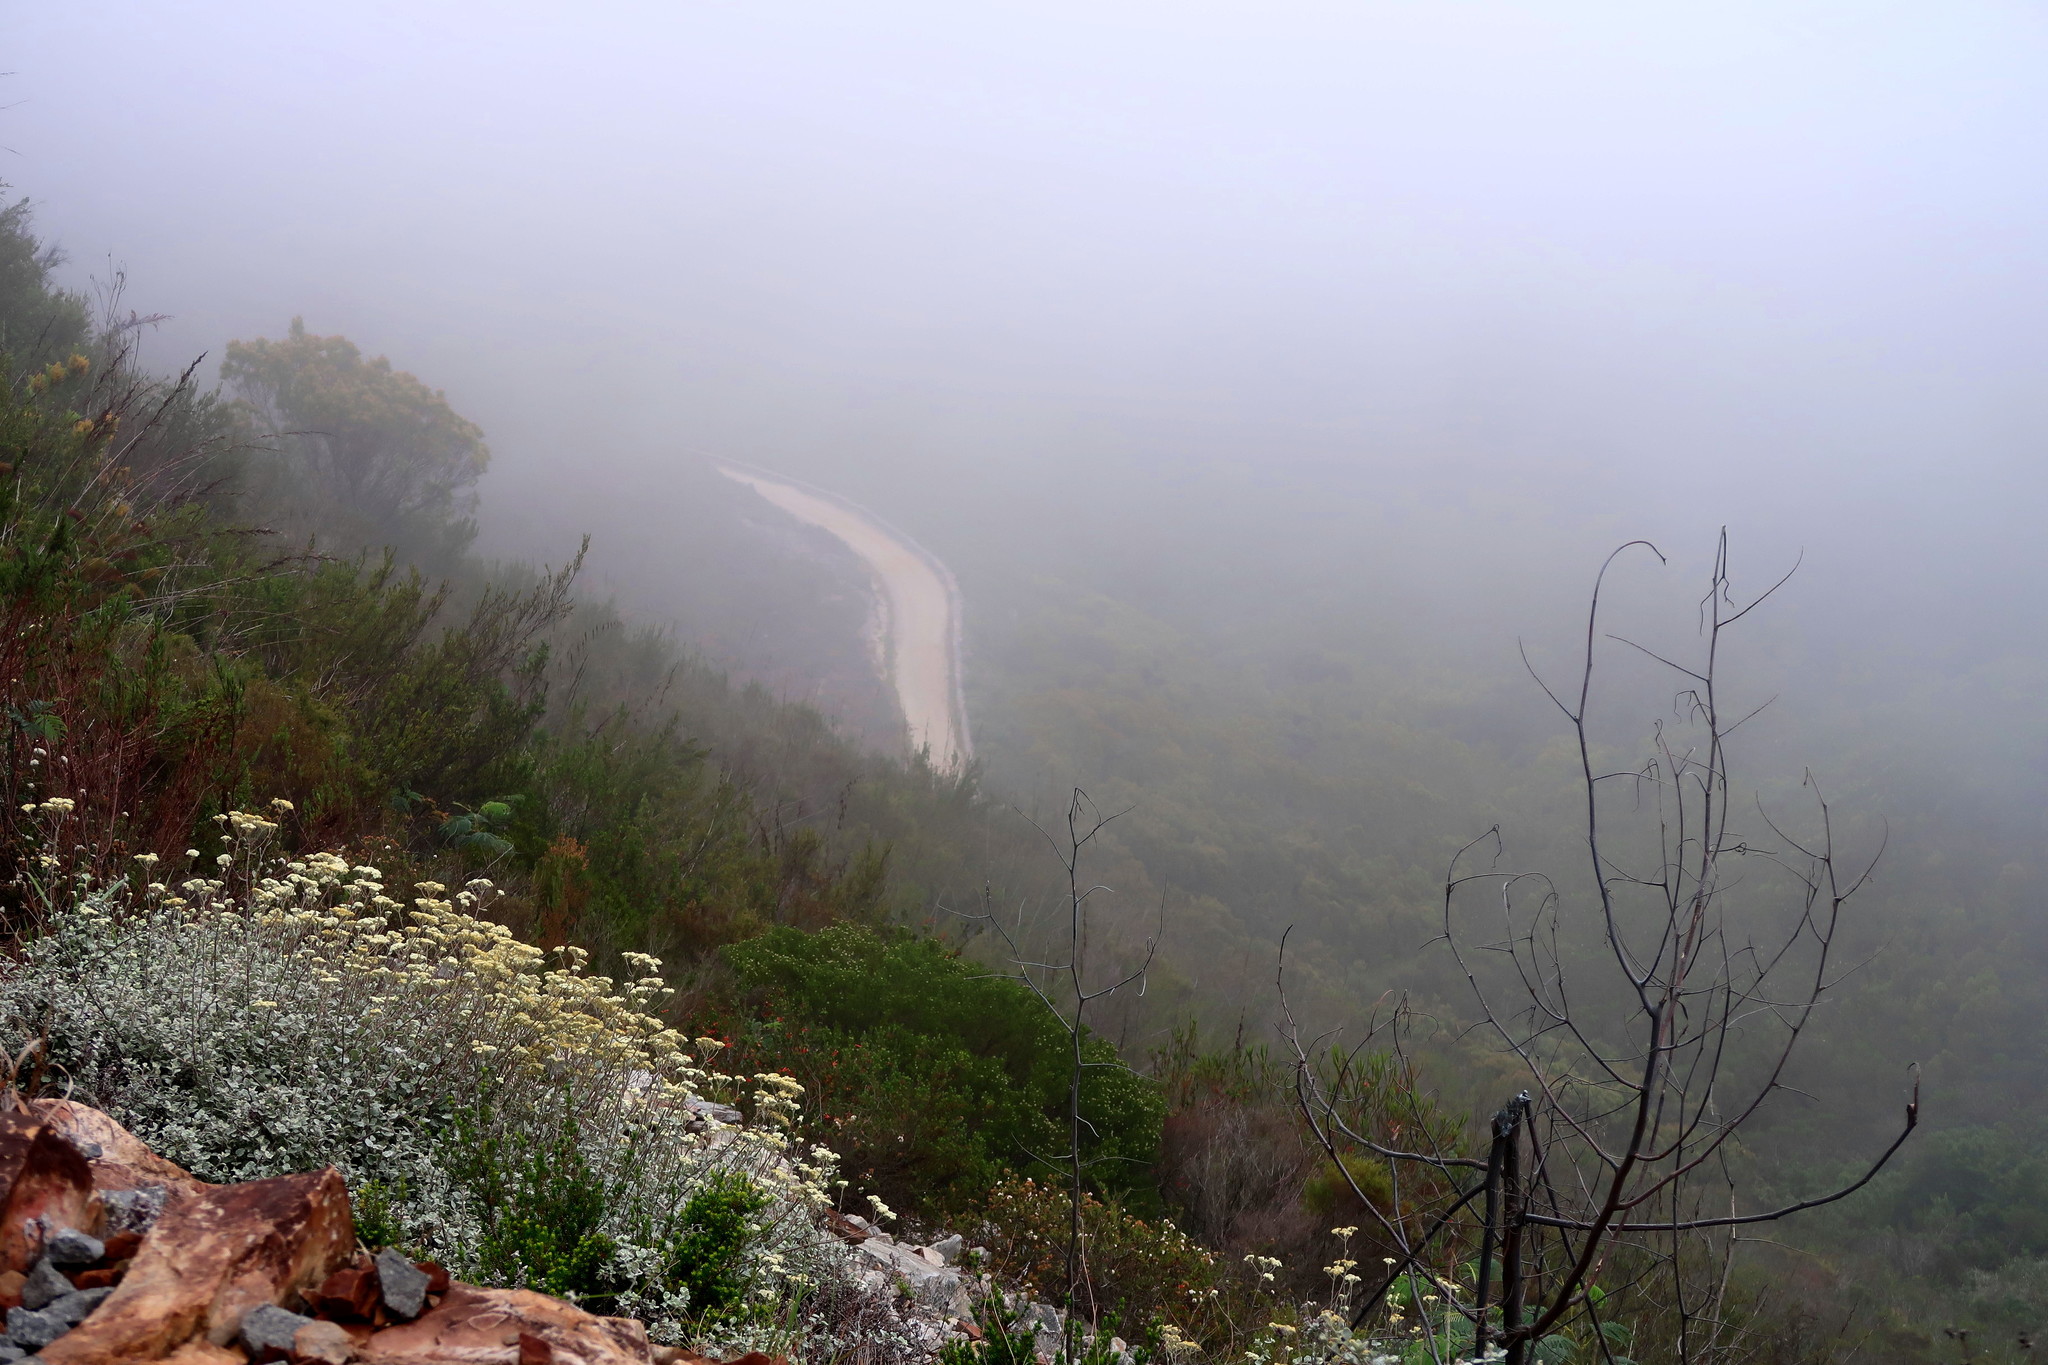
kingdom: Plantae
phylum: Tracheophyta
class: Magnoliopsida
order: Asterales
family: Asteraceae
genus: Helichrysum
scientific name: Helichrysum petiolare
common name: Licorice-plant
